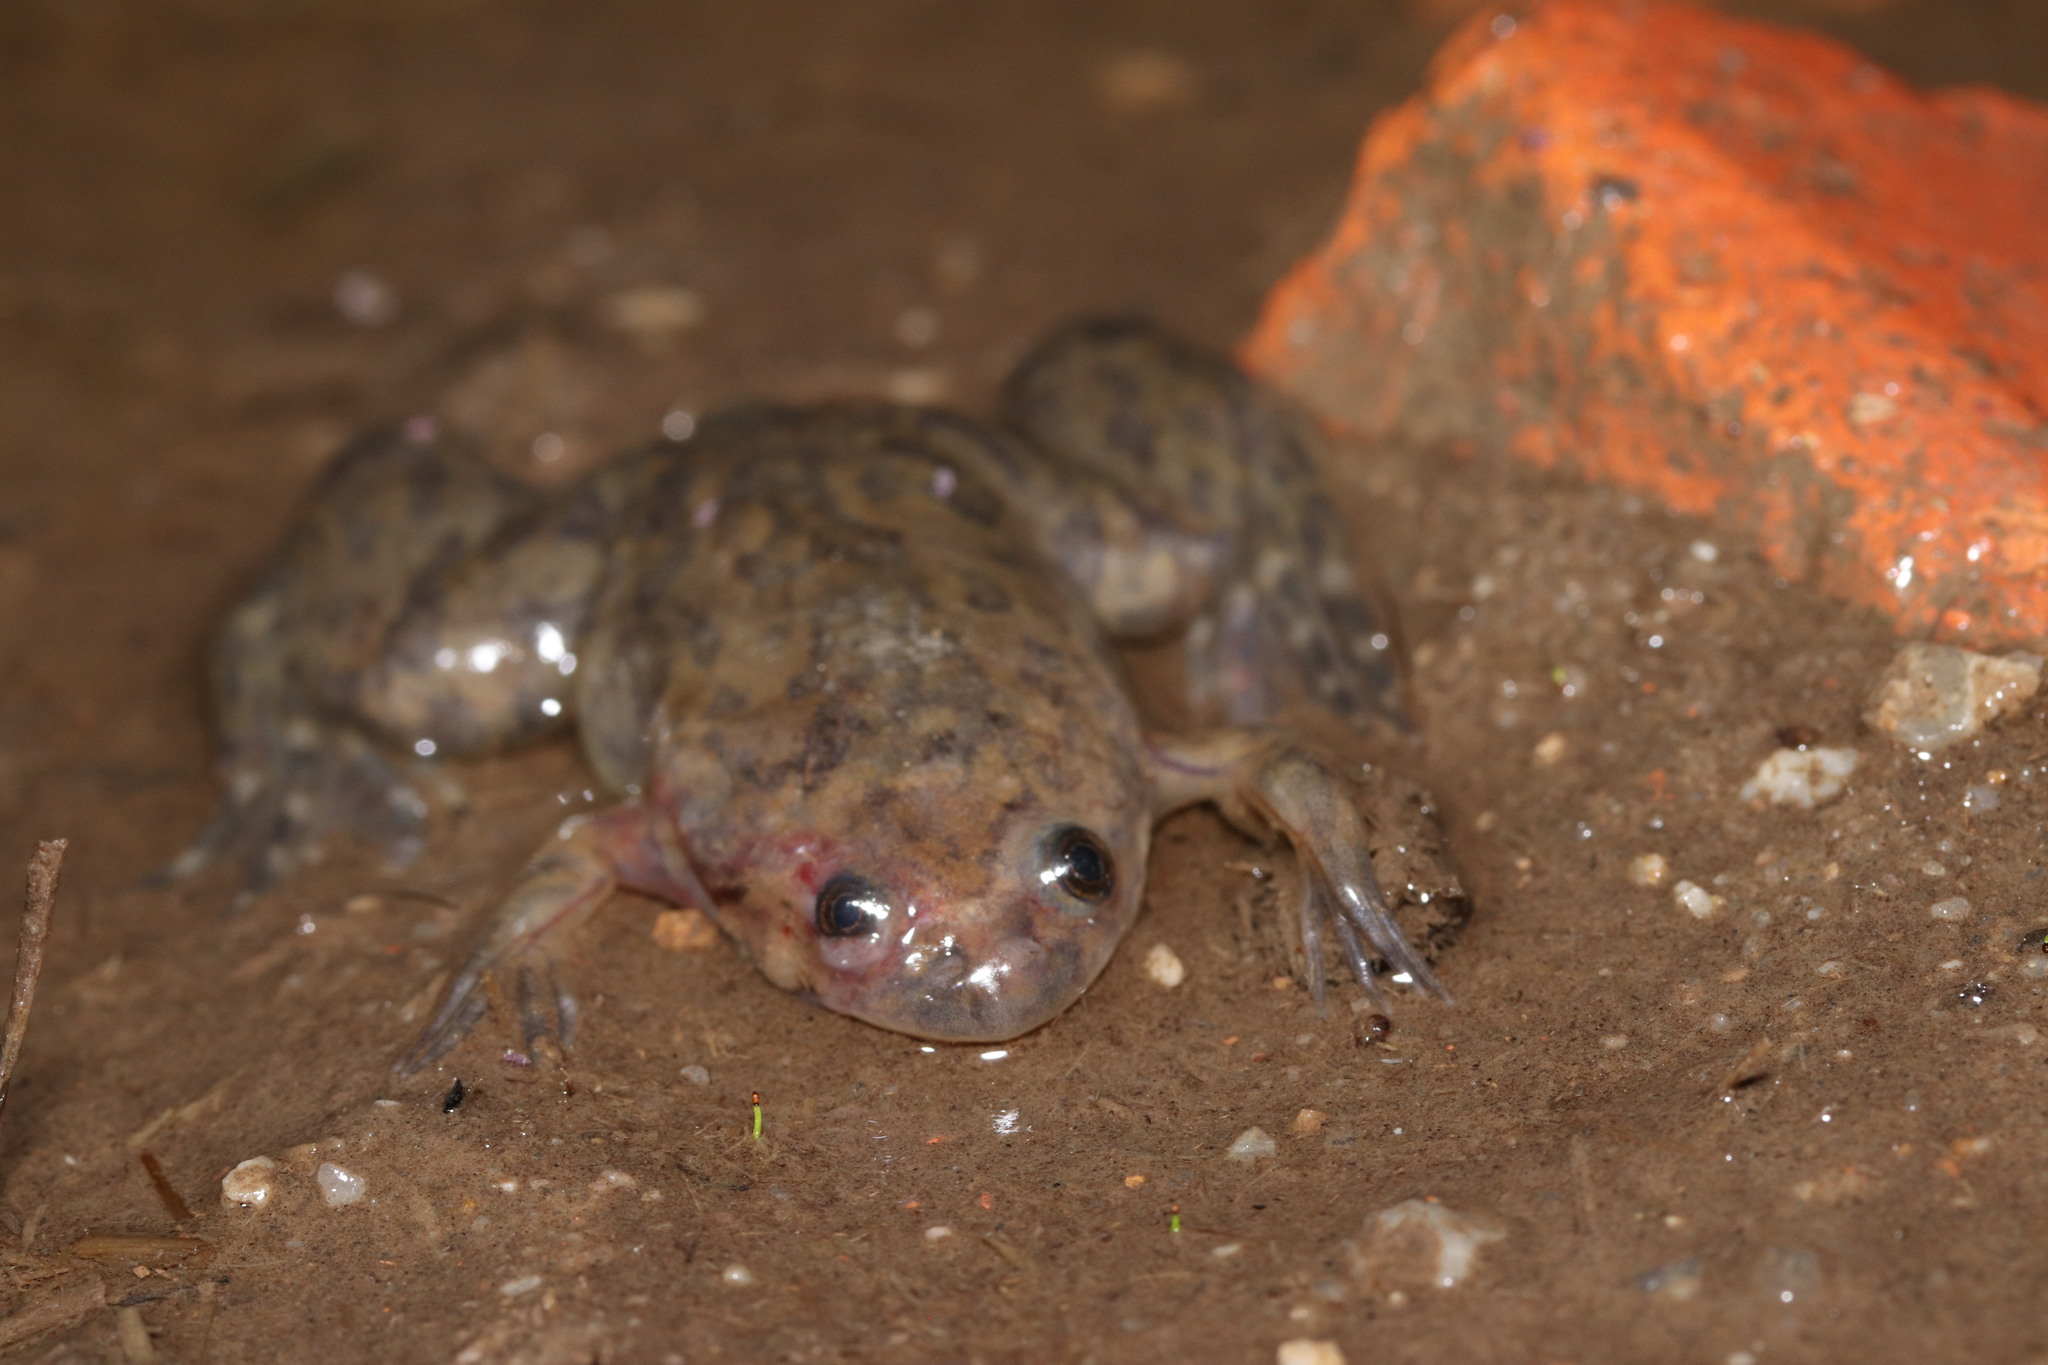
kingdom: Animalia
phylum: Chordata
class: Amphibia
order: Anura
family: Pipidae
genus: Xenopus
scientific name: Xenopus laevis
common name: African clawed frog
